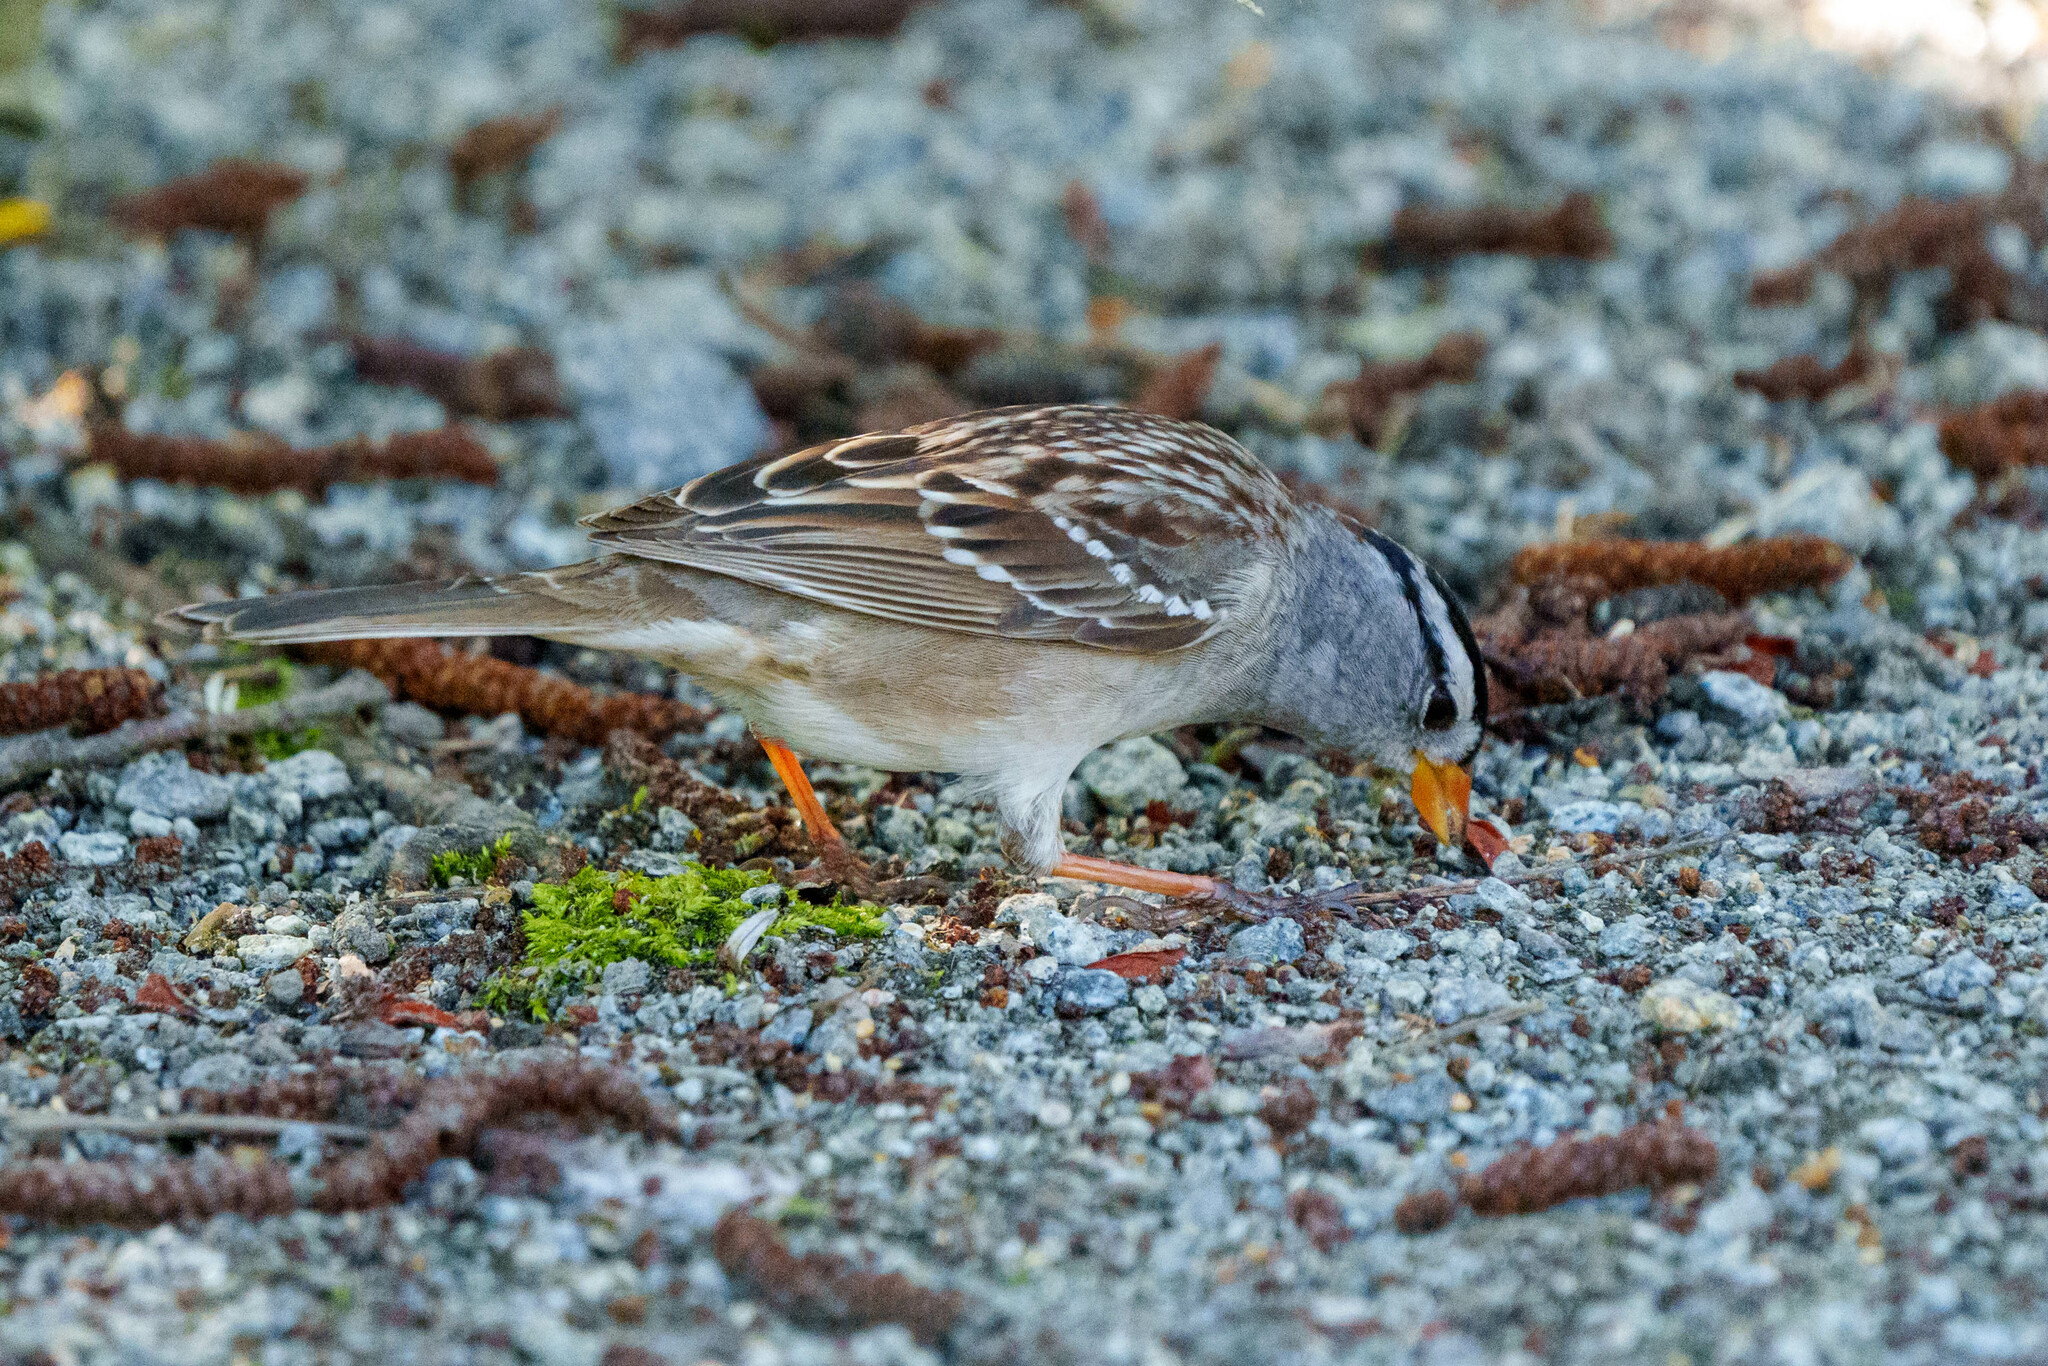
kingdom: Animalia
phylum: Chordata
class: Aves
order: Passeriformes
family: Passerellidae
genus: Zonotrichia
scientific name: Zonotrichia leucophrys
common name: White-crowned sparrow
